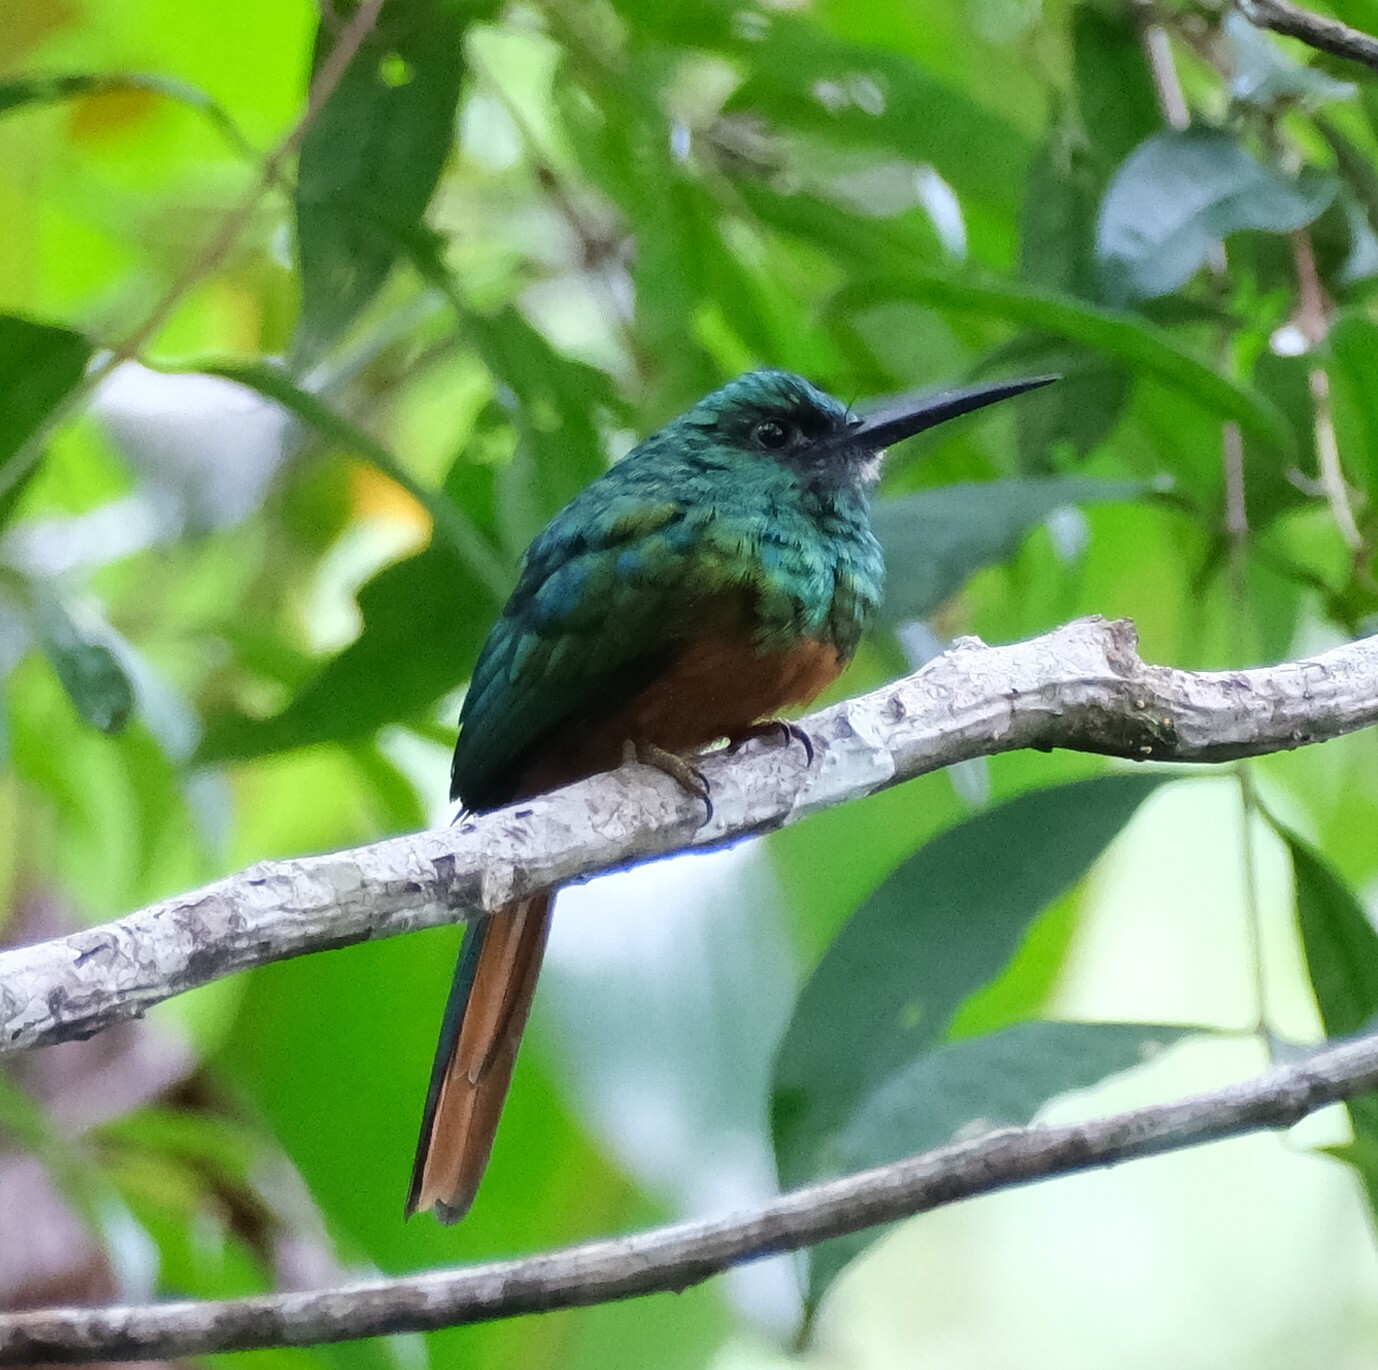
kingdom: Animalia
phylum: Chordata
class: Aves
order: Piciformes
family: Galbulidae
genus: Galbula
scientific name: Galbula cyanescens
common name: Bluish-fronted jacamar
